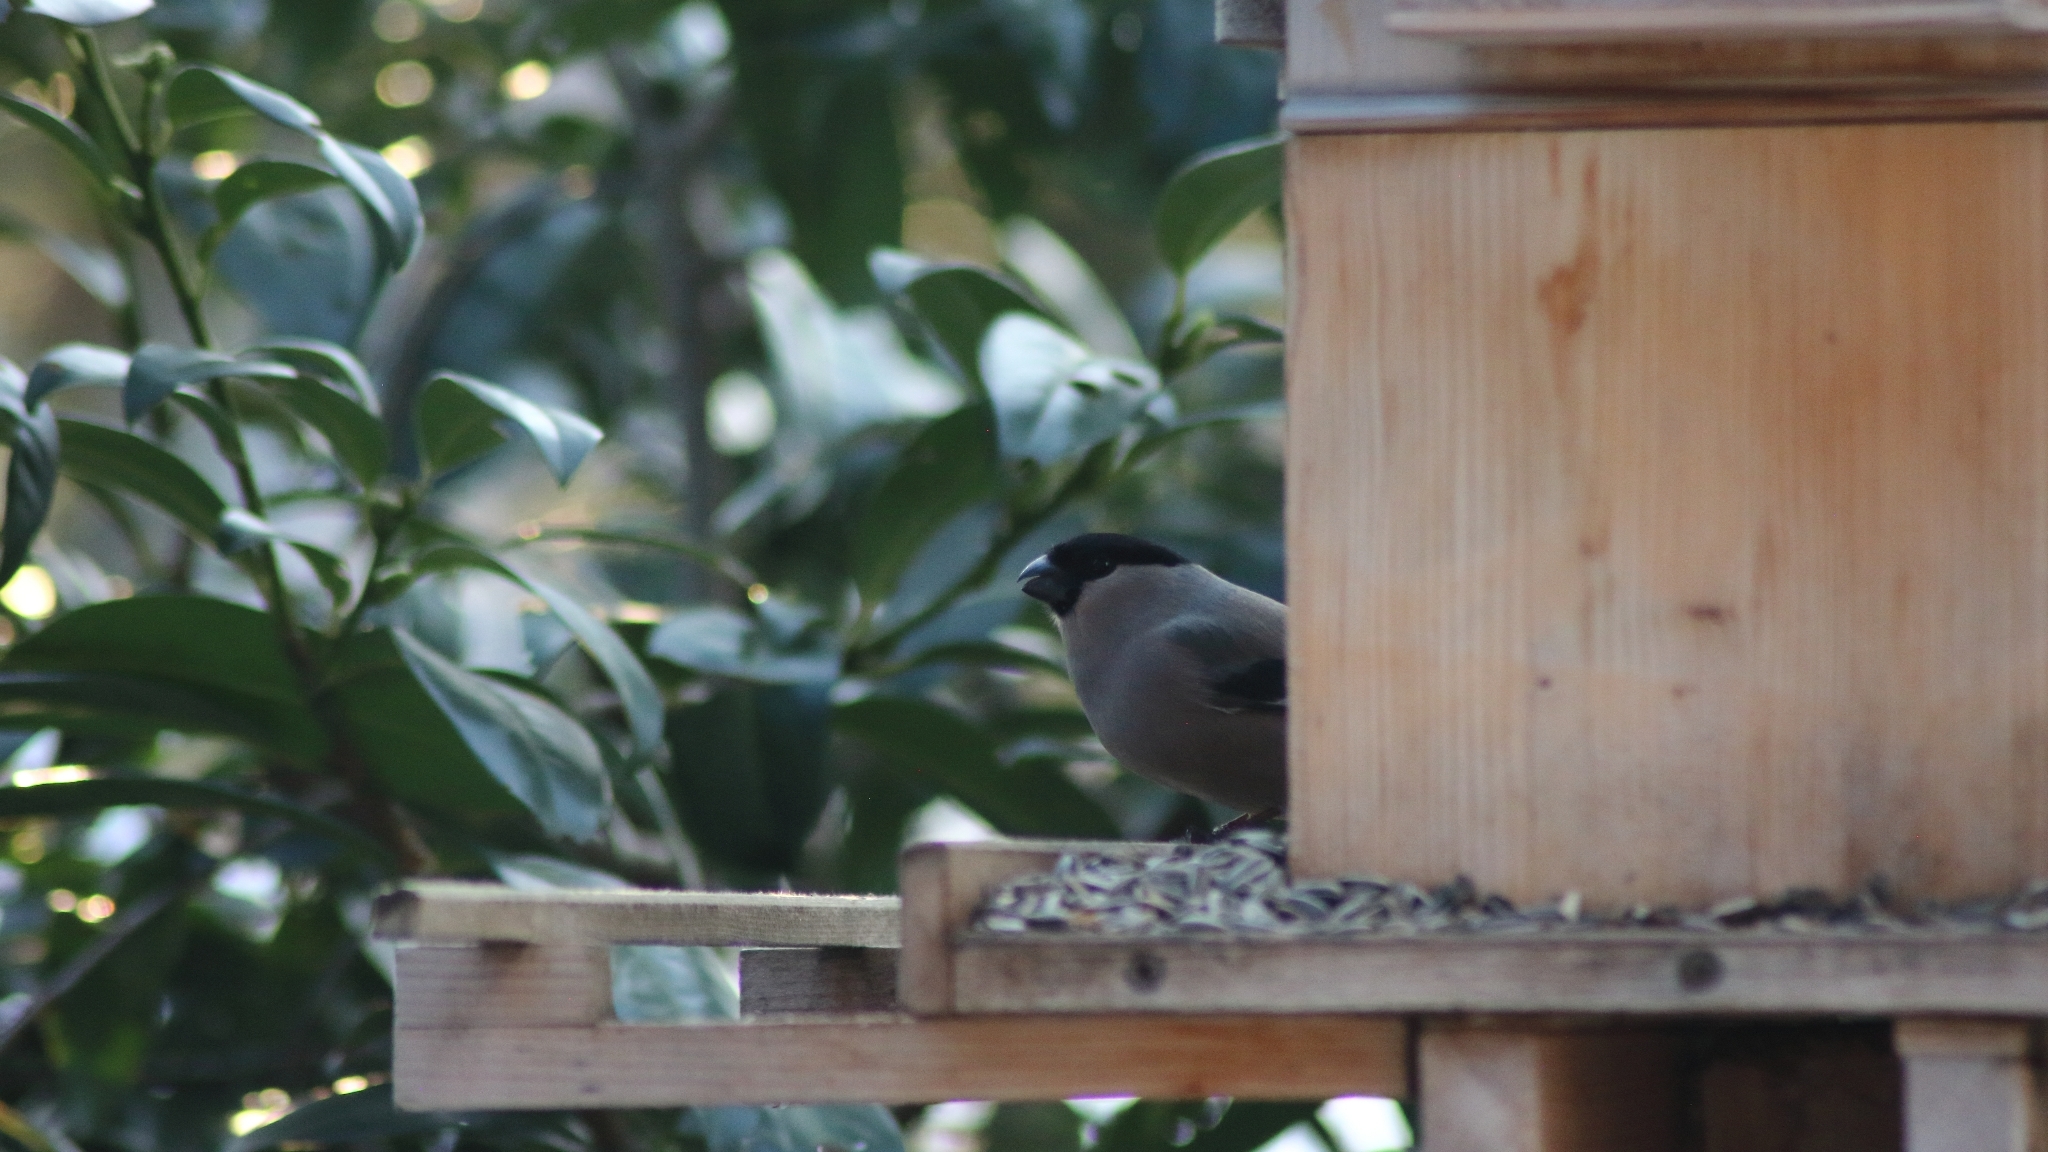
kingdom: Animalia
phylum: Chordata
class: Aves
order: Passeriformes
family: Fringillidae
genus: Pyrrhula
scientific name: Pyrrhula pyrrhula
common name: Eurasian bullfinch
